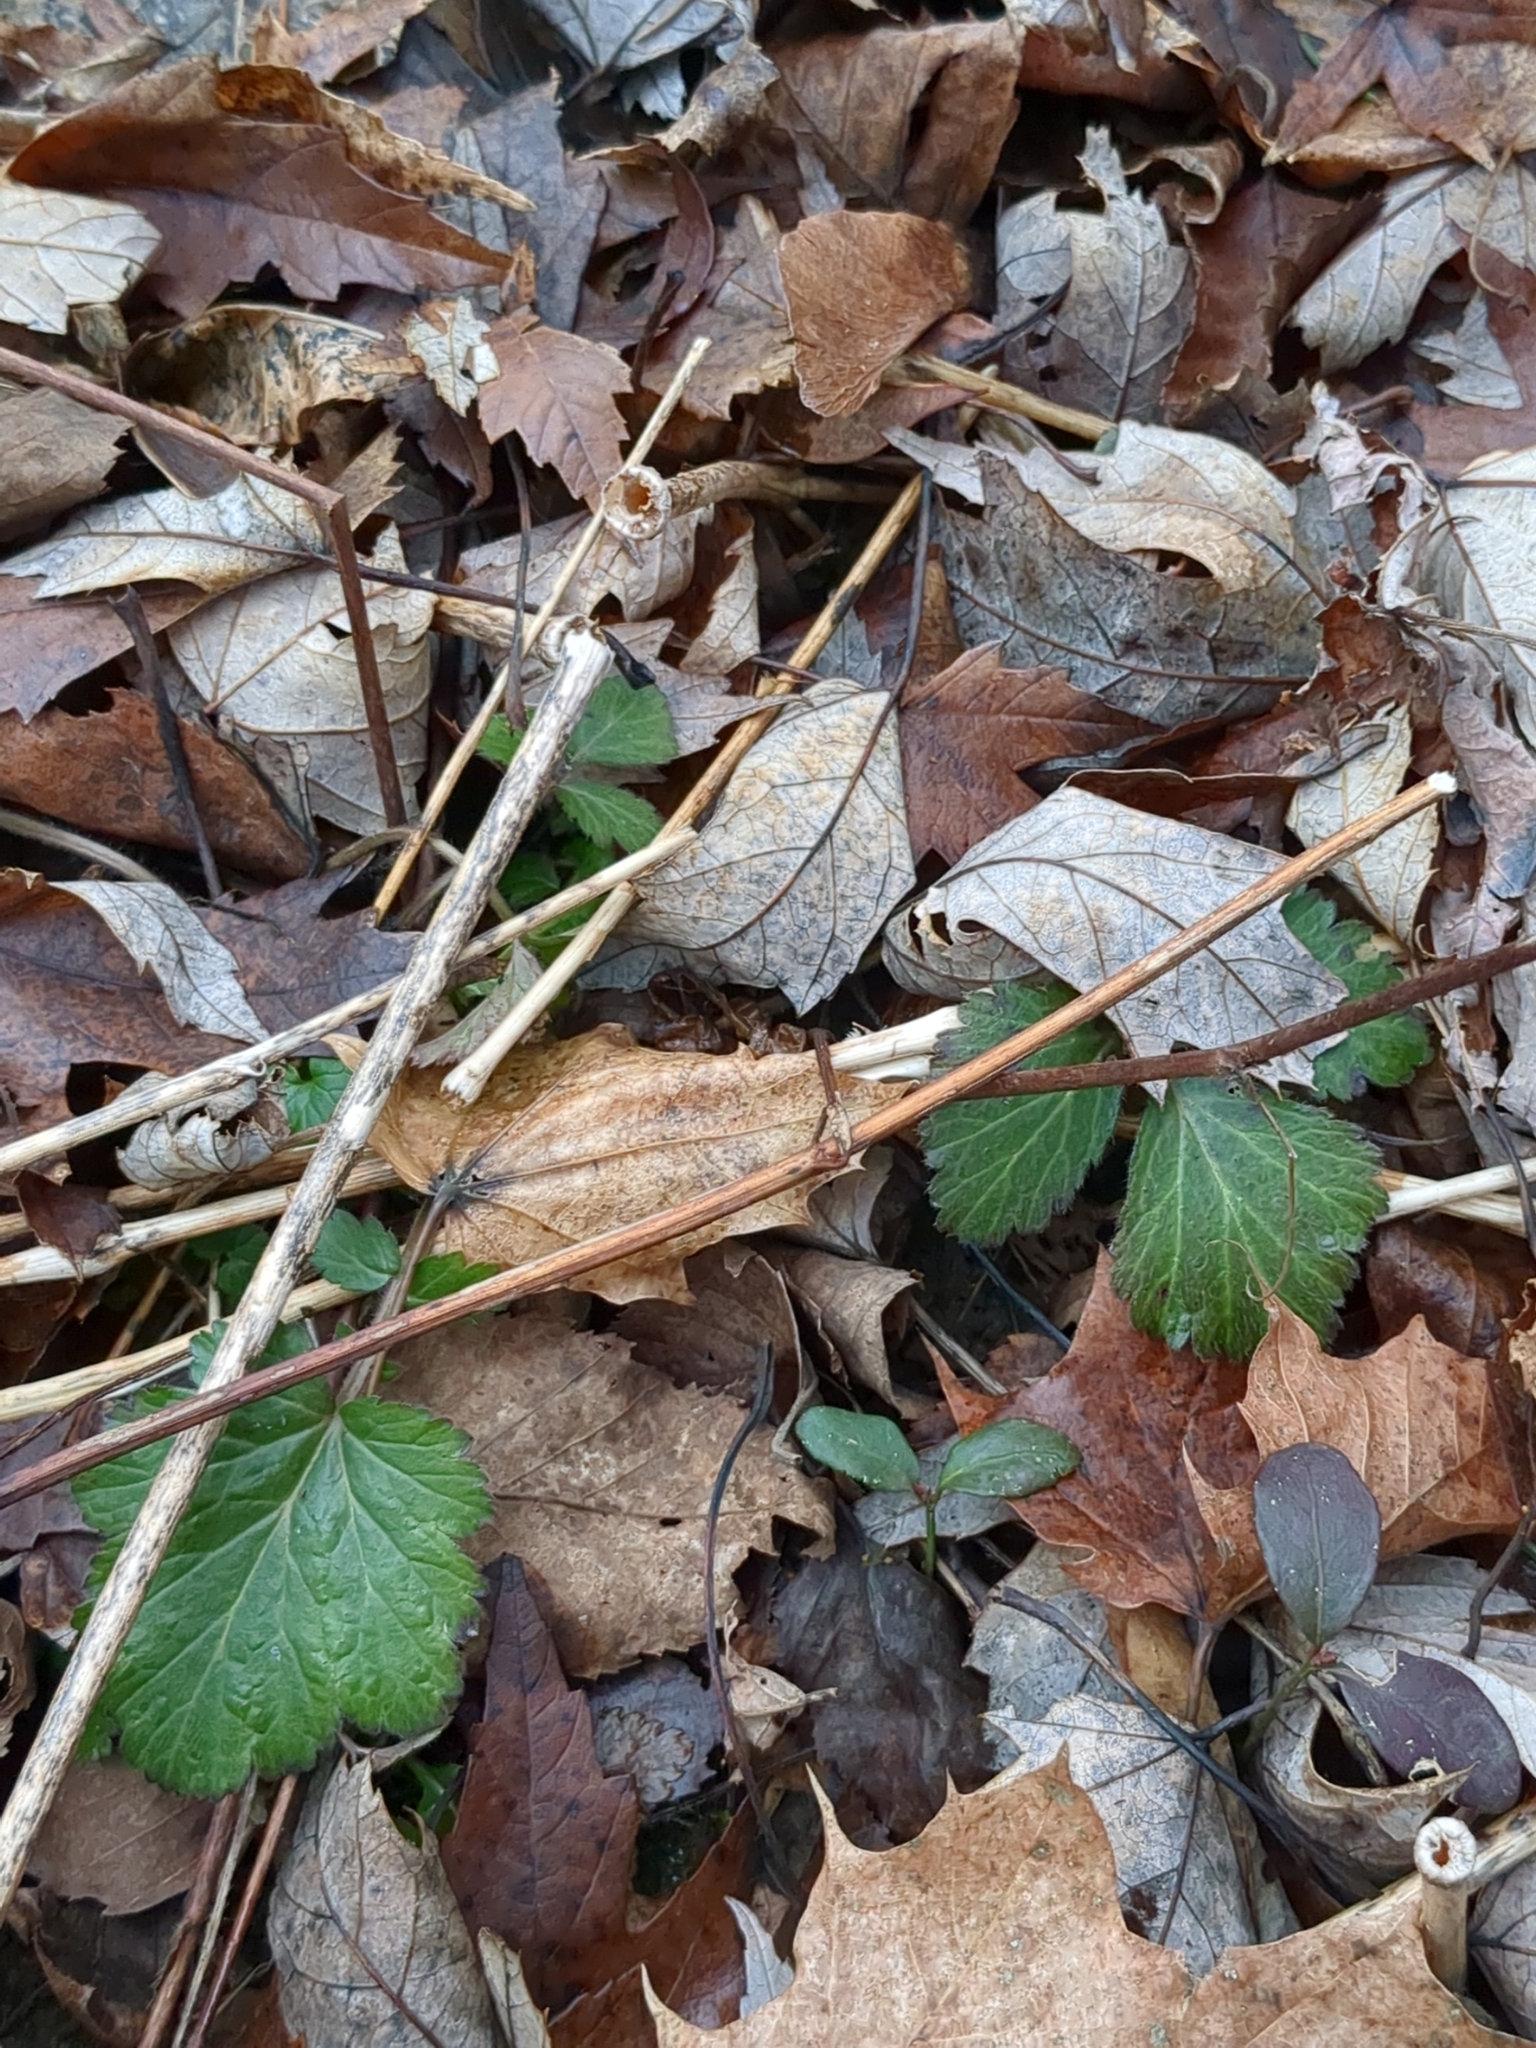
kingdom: Plantae
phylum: Tracheophyta
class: Magnoliopsida
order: Rosales
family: Rosaceae
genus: Geum
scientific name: Geum canadense
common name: White avens
